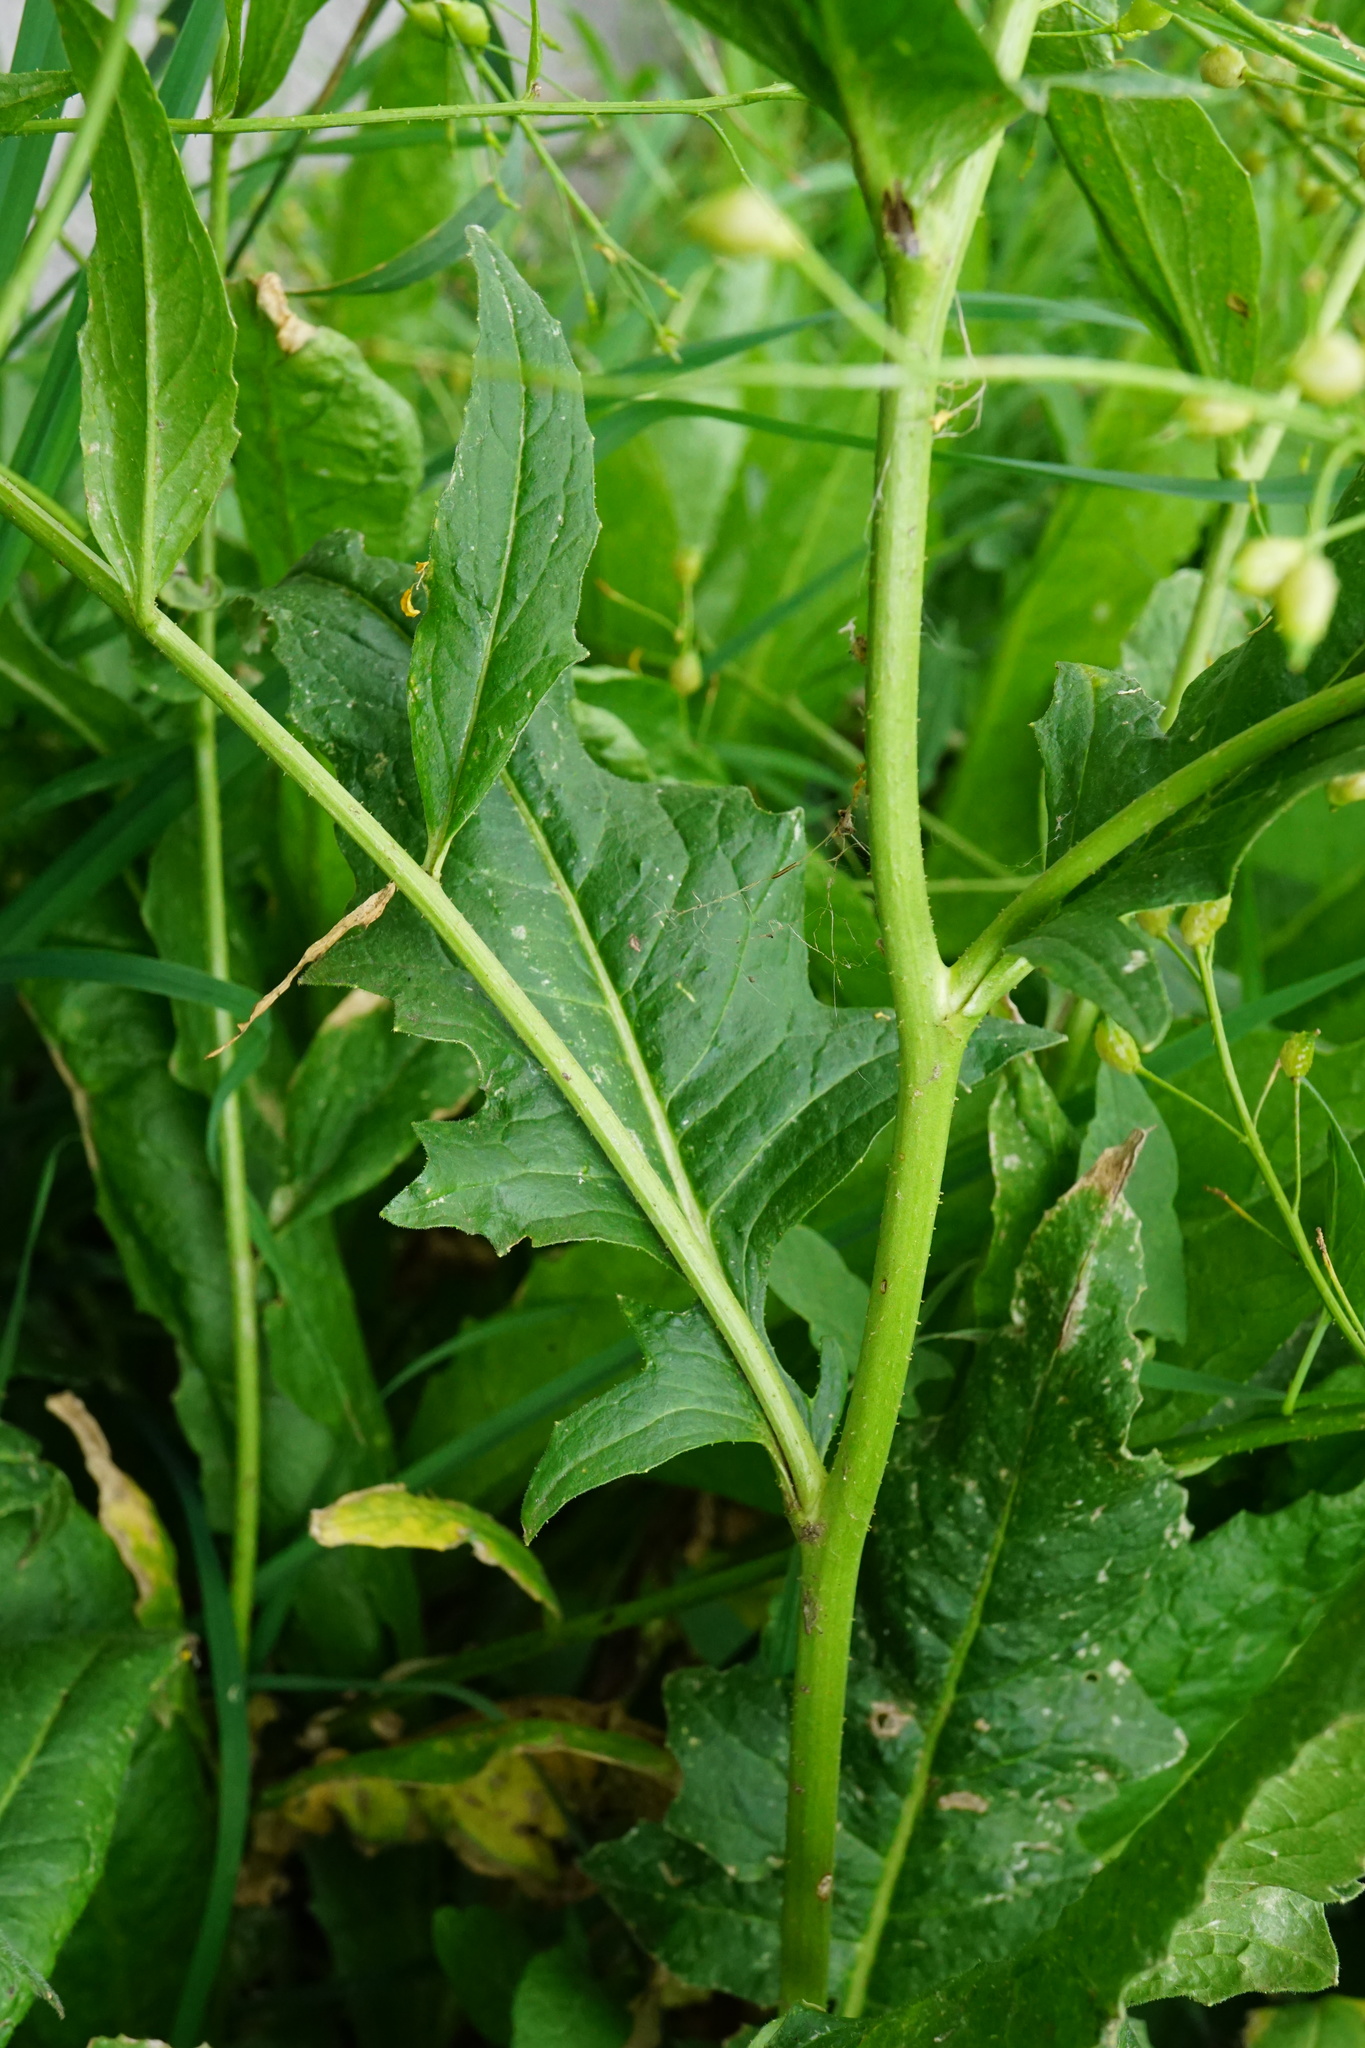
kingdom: Plantae
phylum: Tracheophyta
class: Magnoliopsida
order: Brassicales
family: Brassicaceae
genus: Bunias
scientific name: Bunias orientalis
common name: Warty-cabbage
